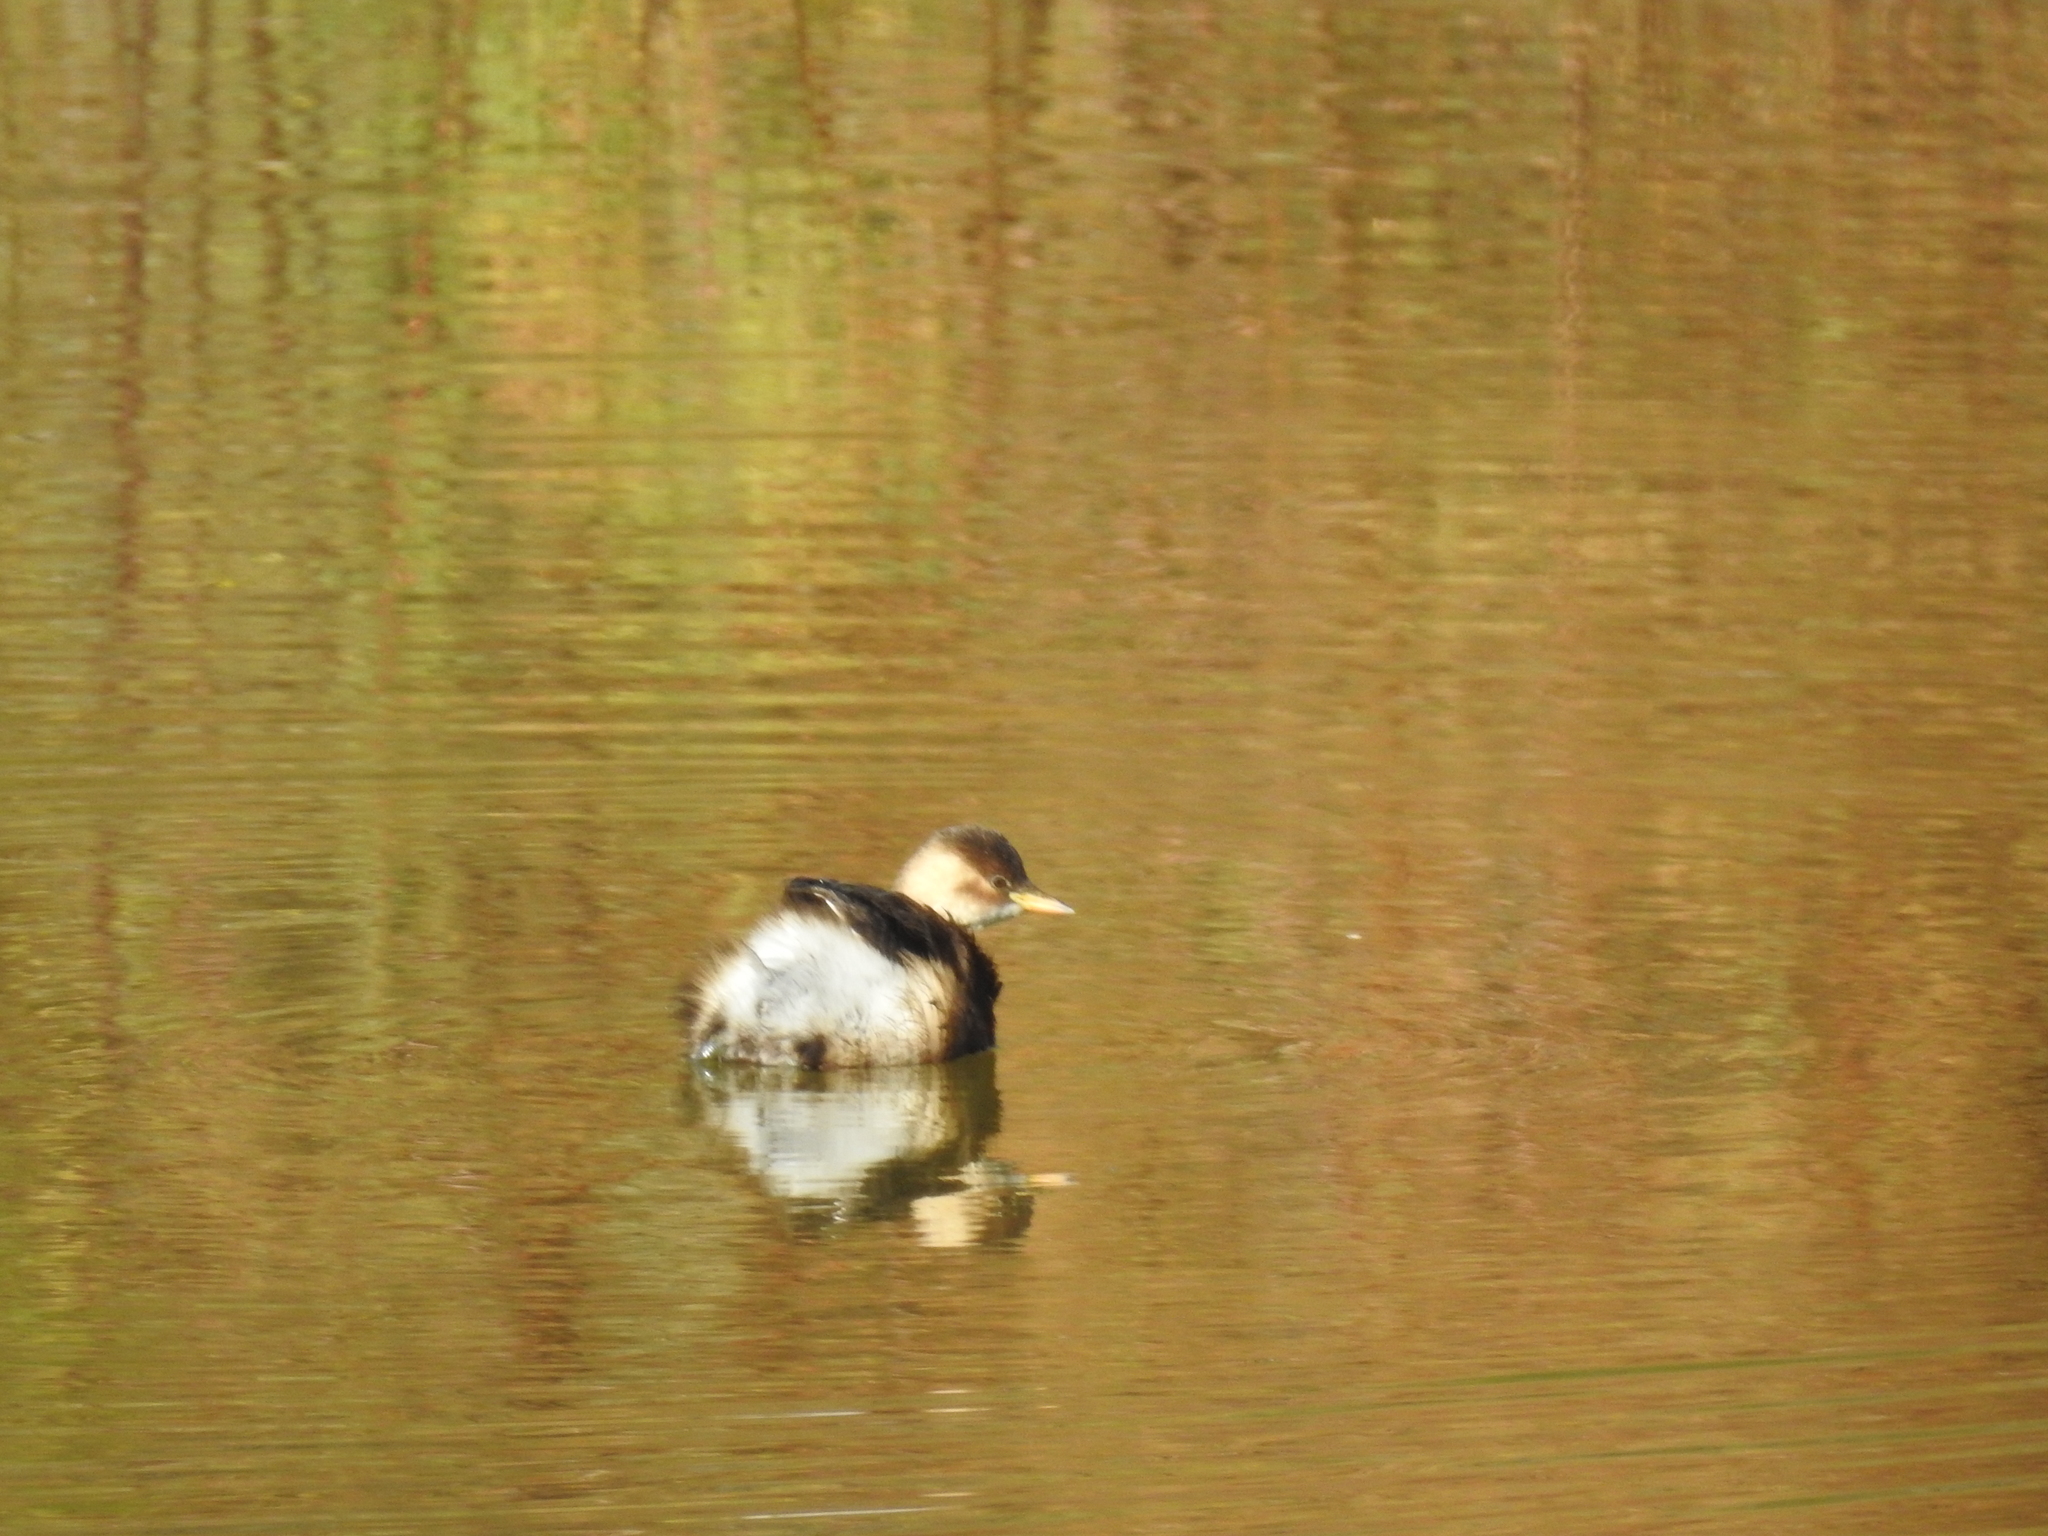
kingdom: Animalia
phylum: Chordata
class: Aves
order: Podicipediformes
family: Podicipedidae
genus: Tachybaptus
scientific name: Tachybaptus ruficollis
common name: Little grebe
